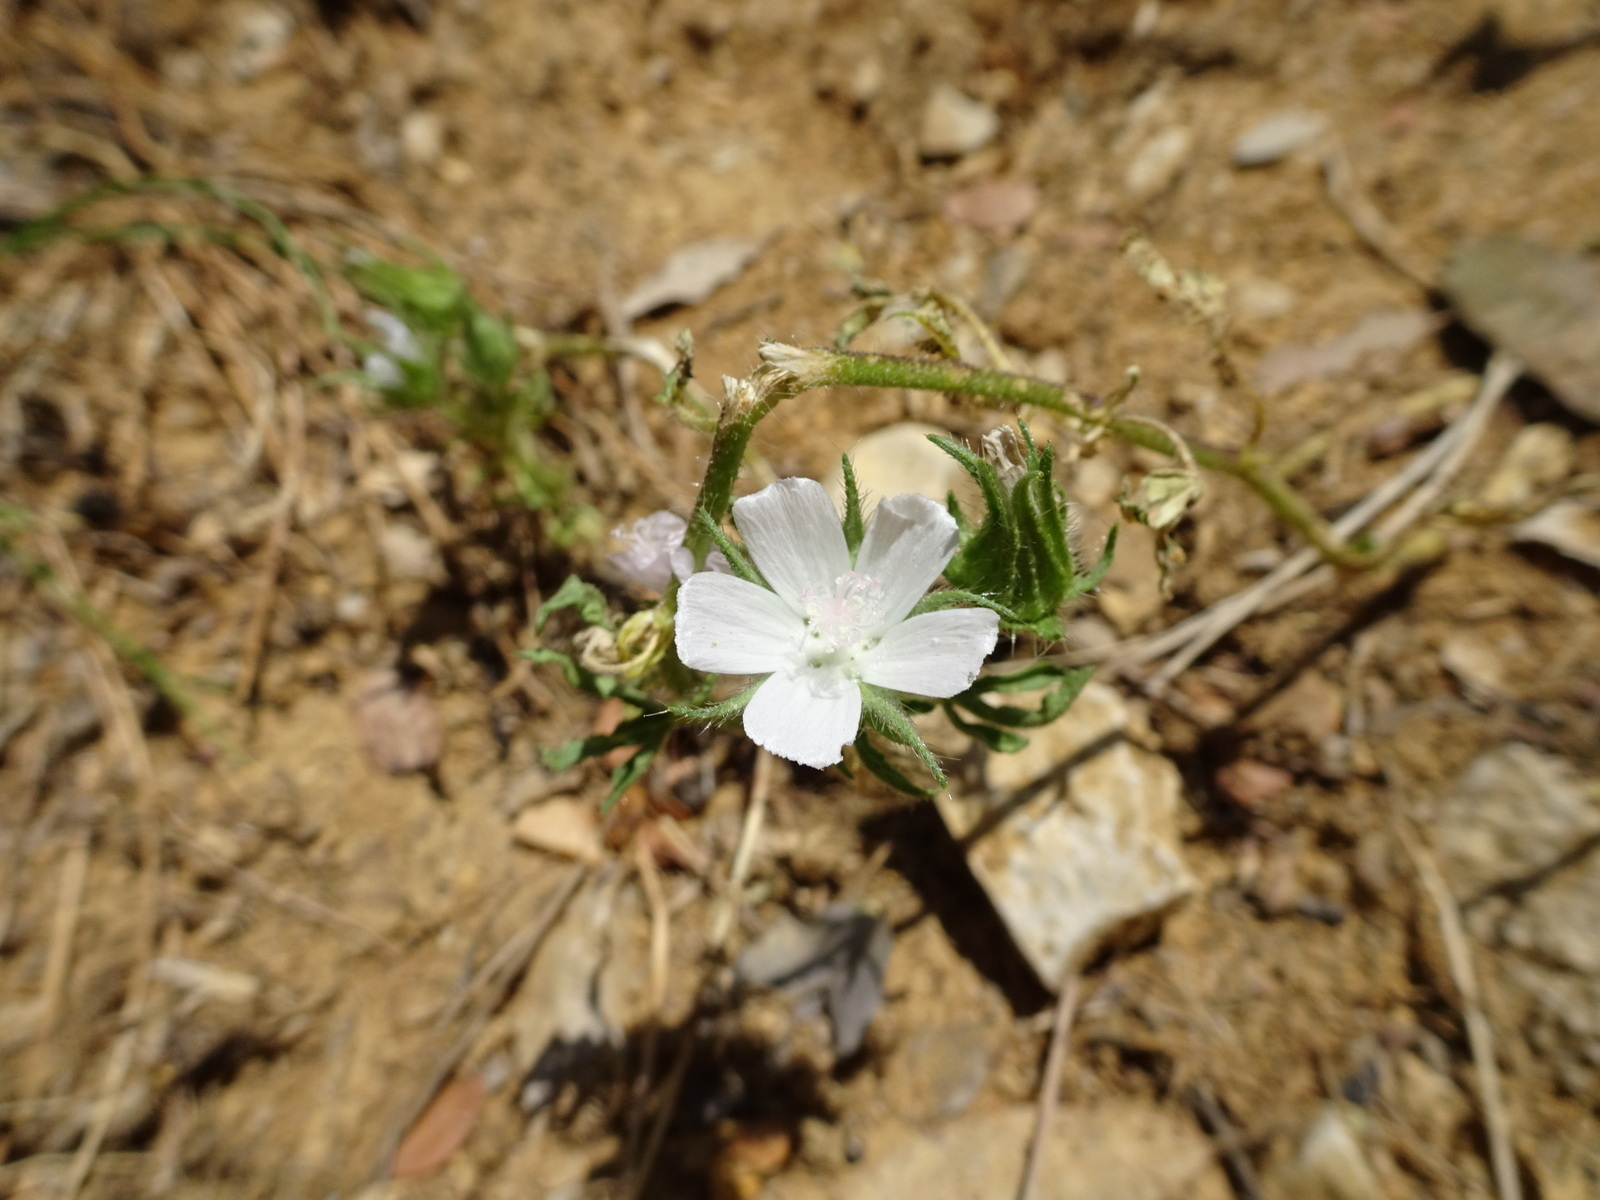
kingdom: Plantae
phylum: Tracheophyta
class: Magnoliopsida
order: Malvales
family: Malvaceae
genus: Althaea
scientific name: Althaea hirsuta
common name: Rough marsh-mallow
